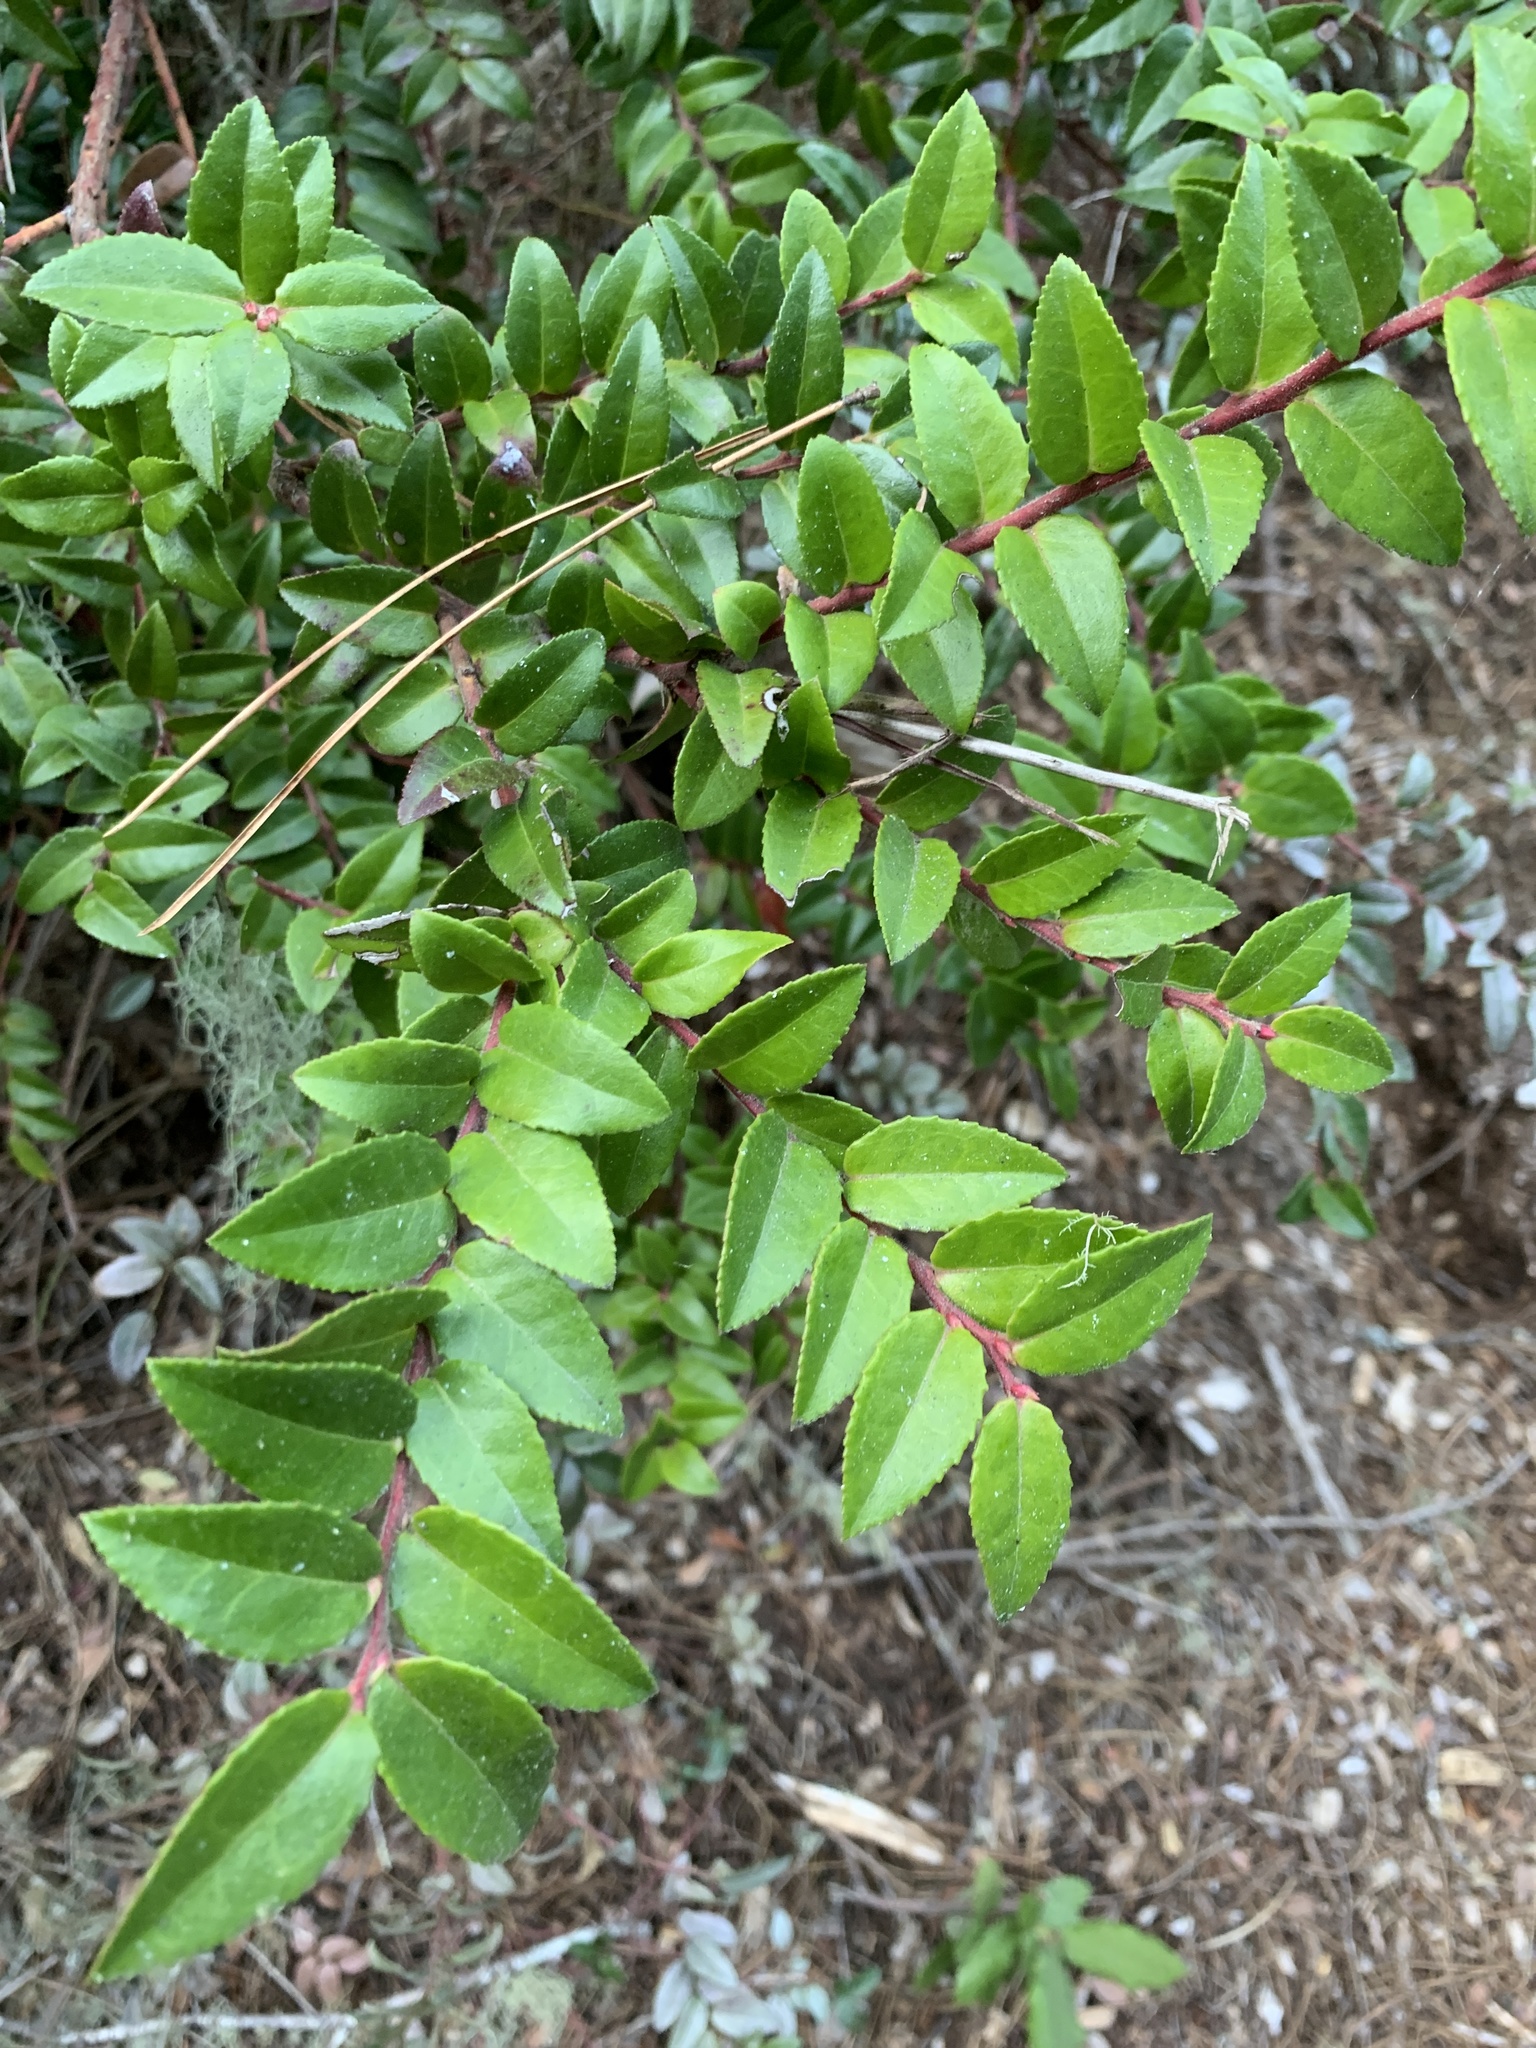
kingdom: Plantae
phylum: Tracheophyta
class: Magnoliopsida
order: Ericales
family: Ericaceae
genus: Vaccinium
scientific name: Vaccinium ovatum
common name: California-huckleberry
